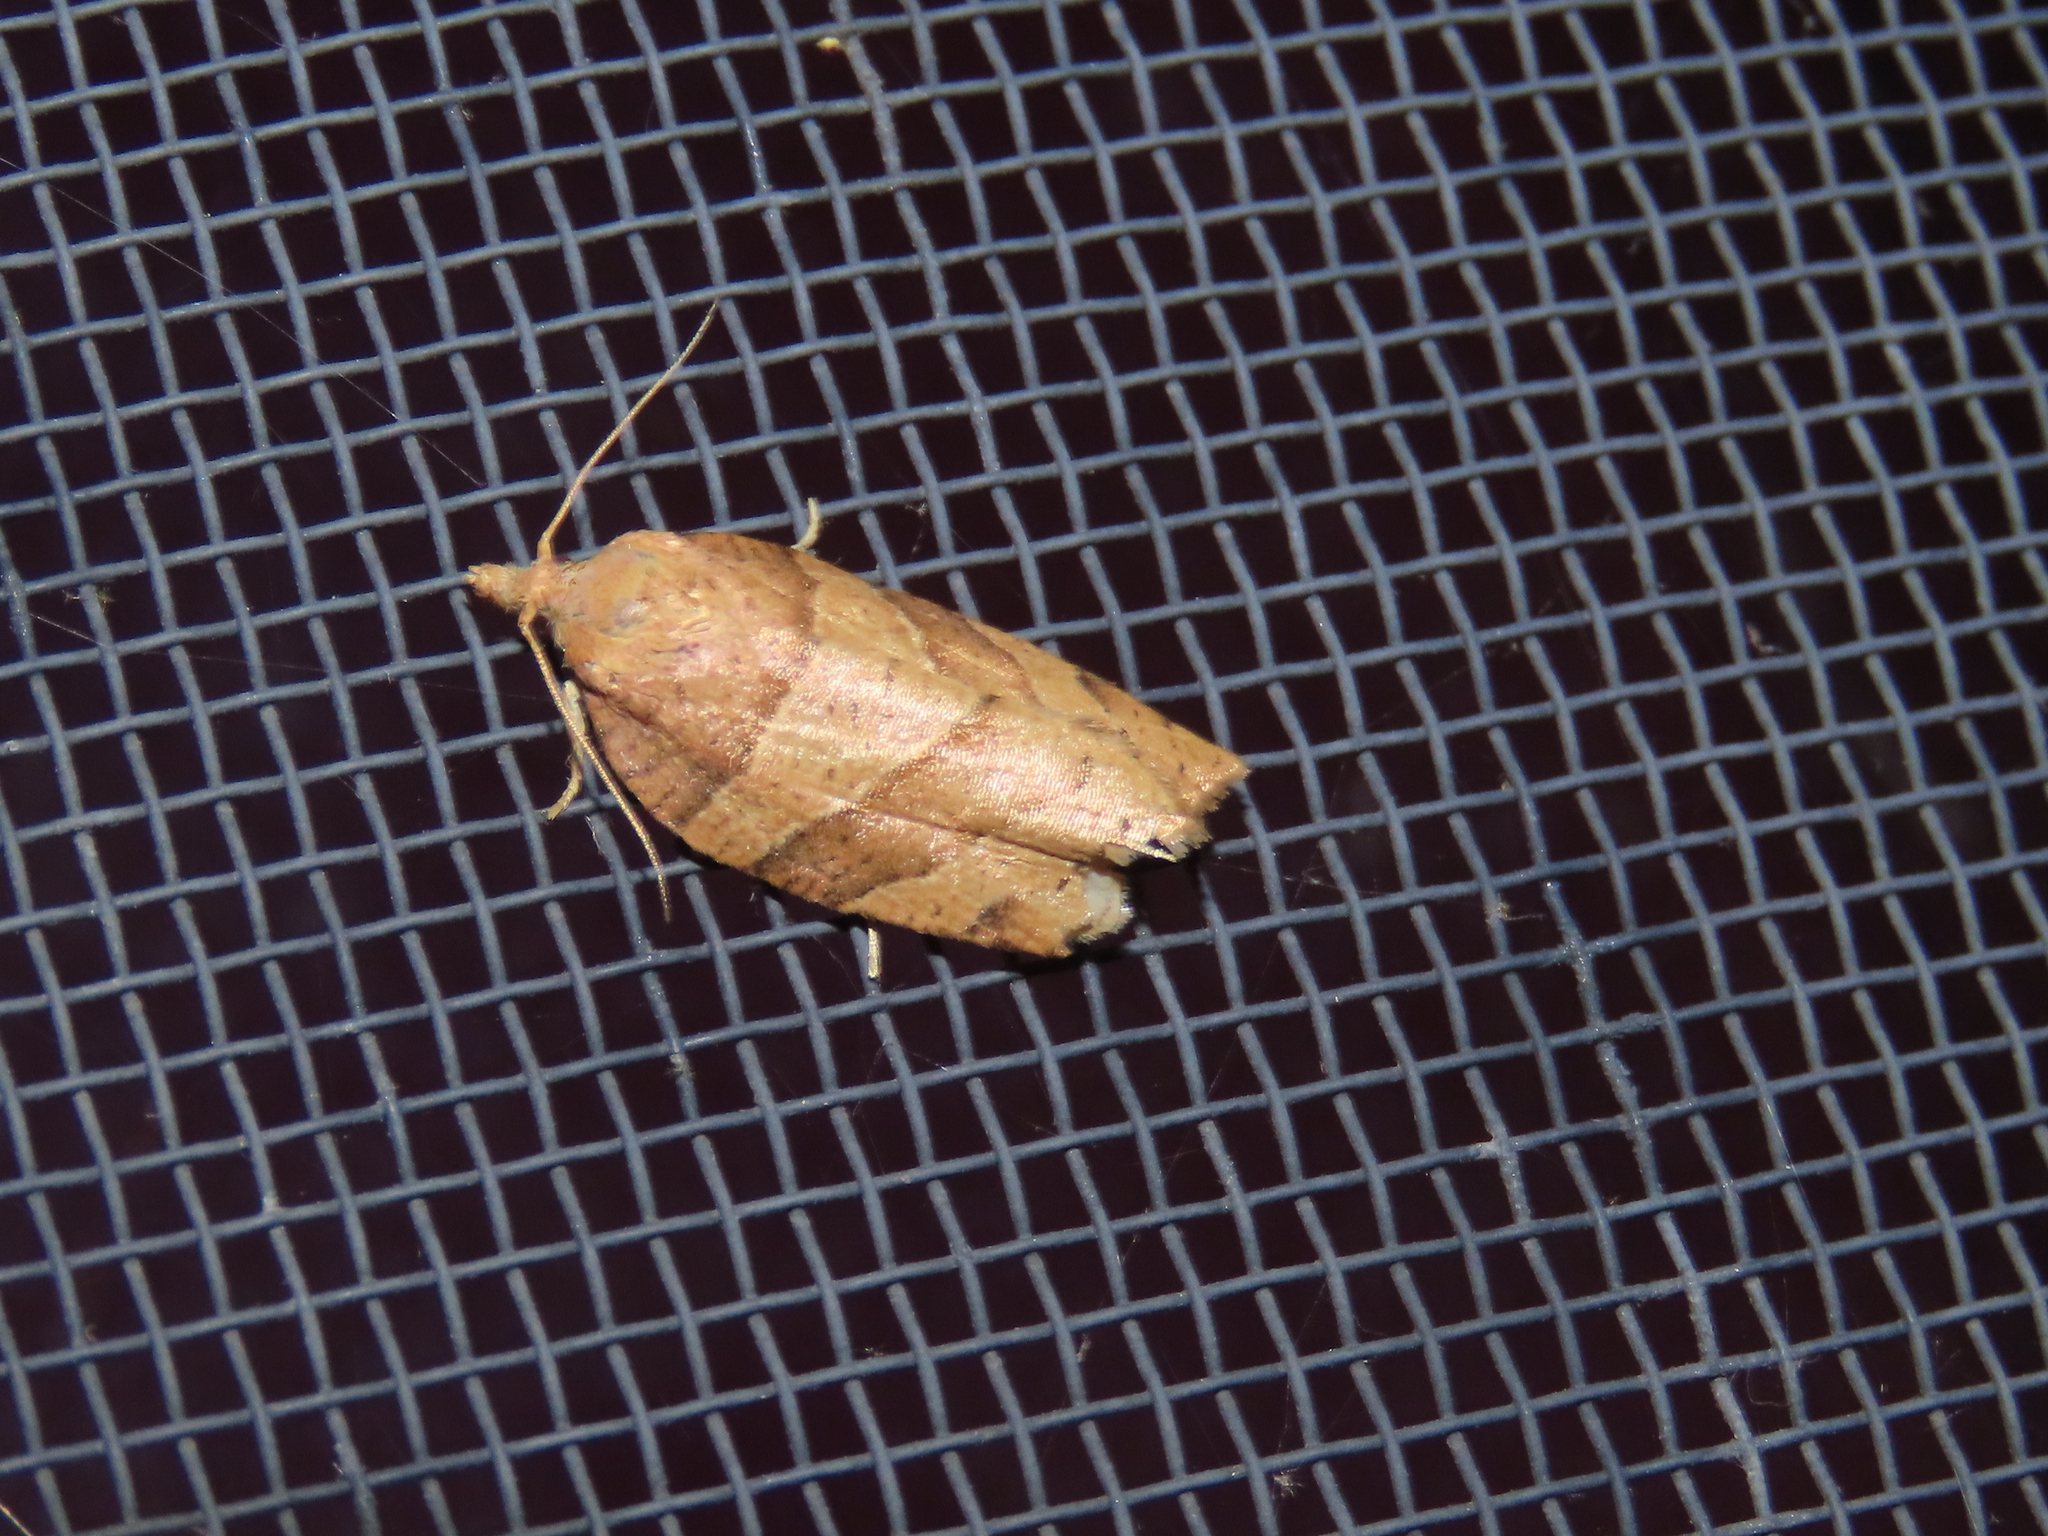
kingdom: Animalia
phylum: Arthropoda
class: Insecta
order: Lepidoptera
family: Tortricidae
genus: Pandemis
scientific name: Pandemis lamprosana
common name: Woodgrain leafroller moth
